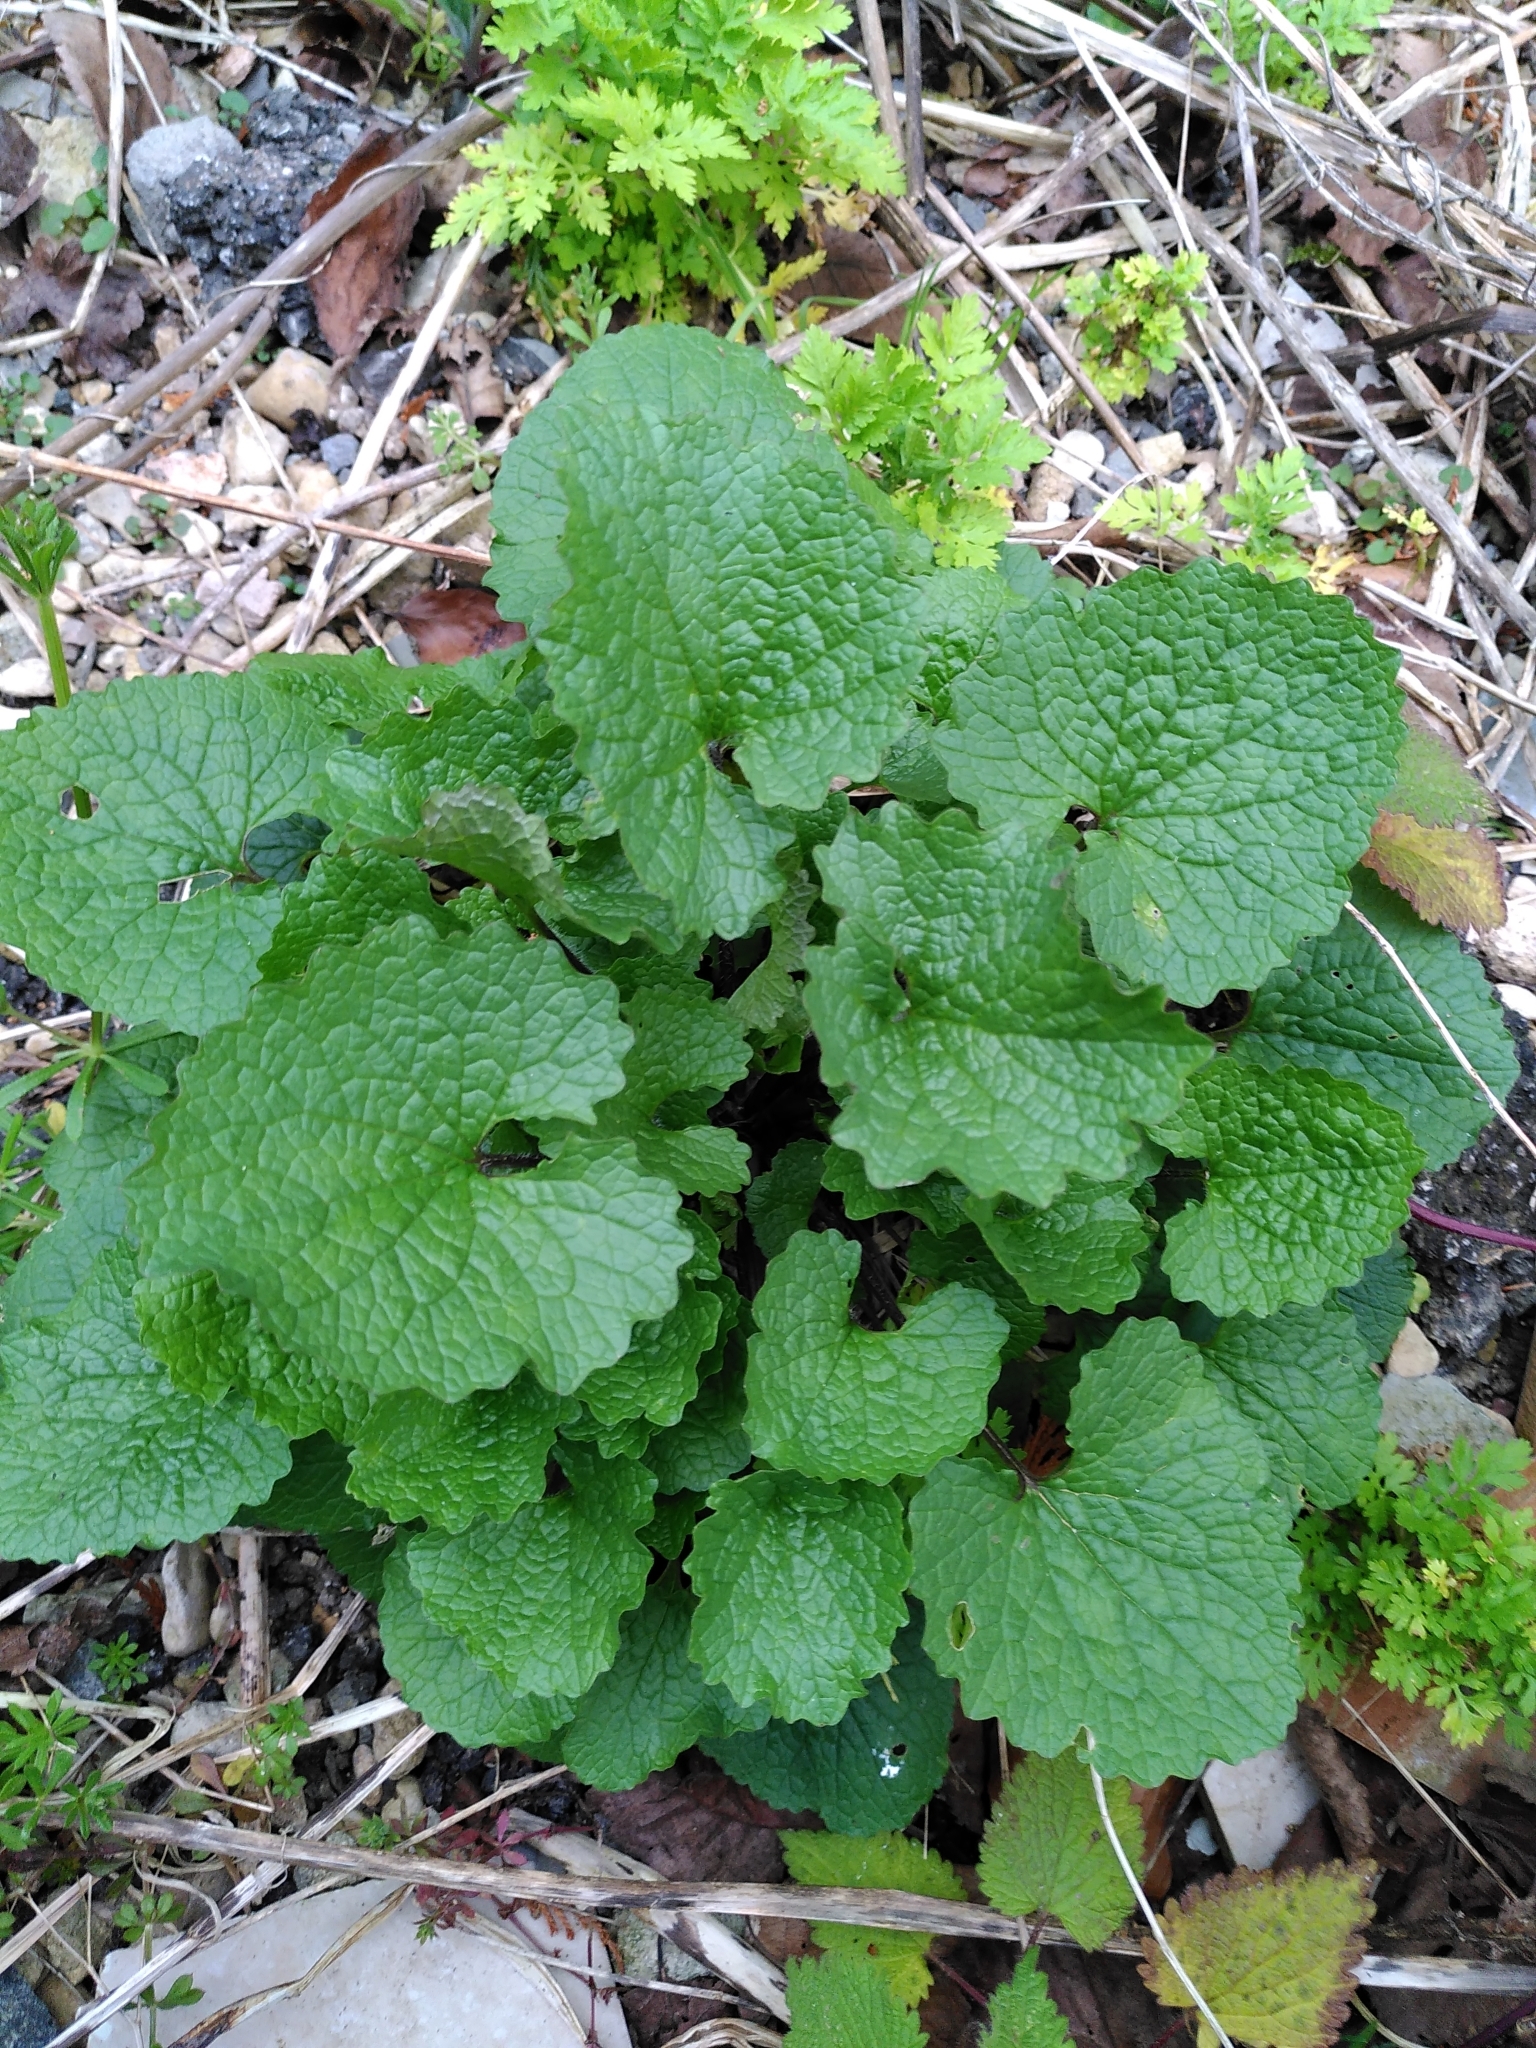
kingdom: Plantae
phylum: Tracheophyta
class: Magnoliopsida
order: Brassicales
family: Brassicaceae
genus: Alliaria
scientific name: Alliaria petiolata
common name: Garlic mustard
